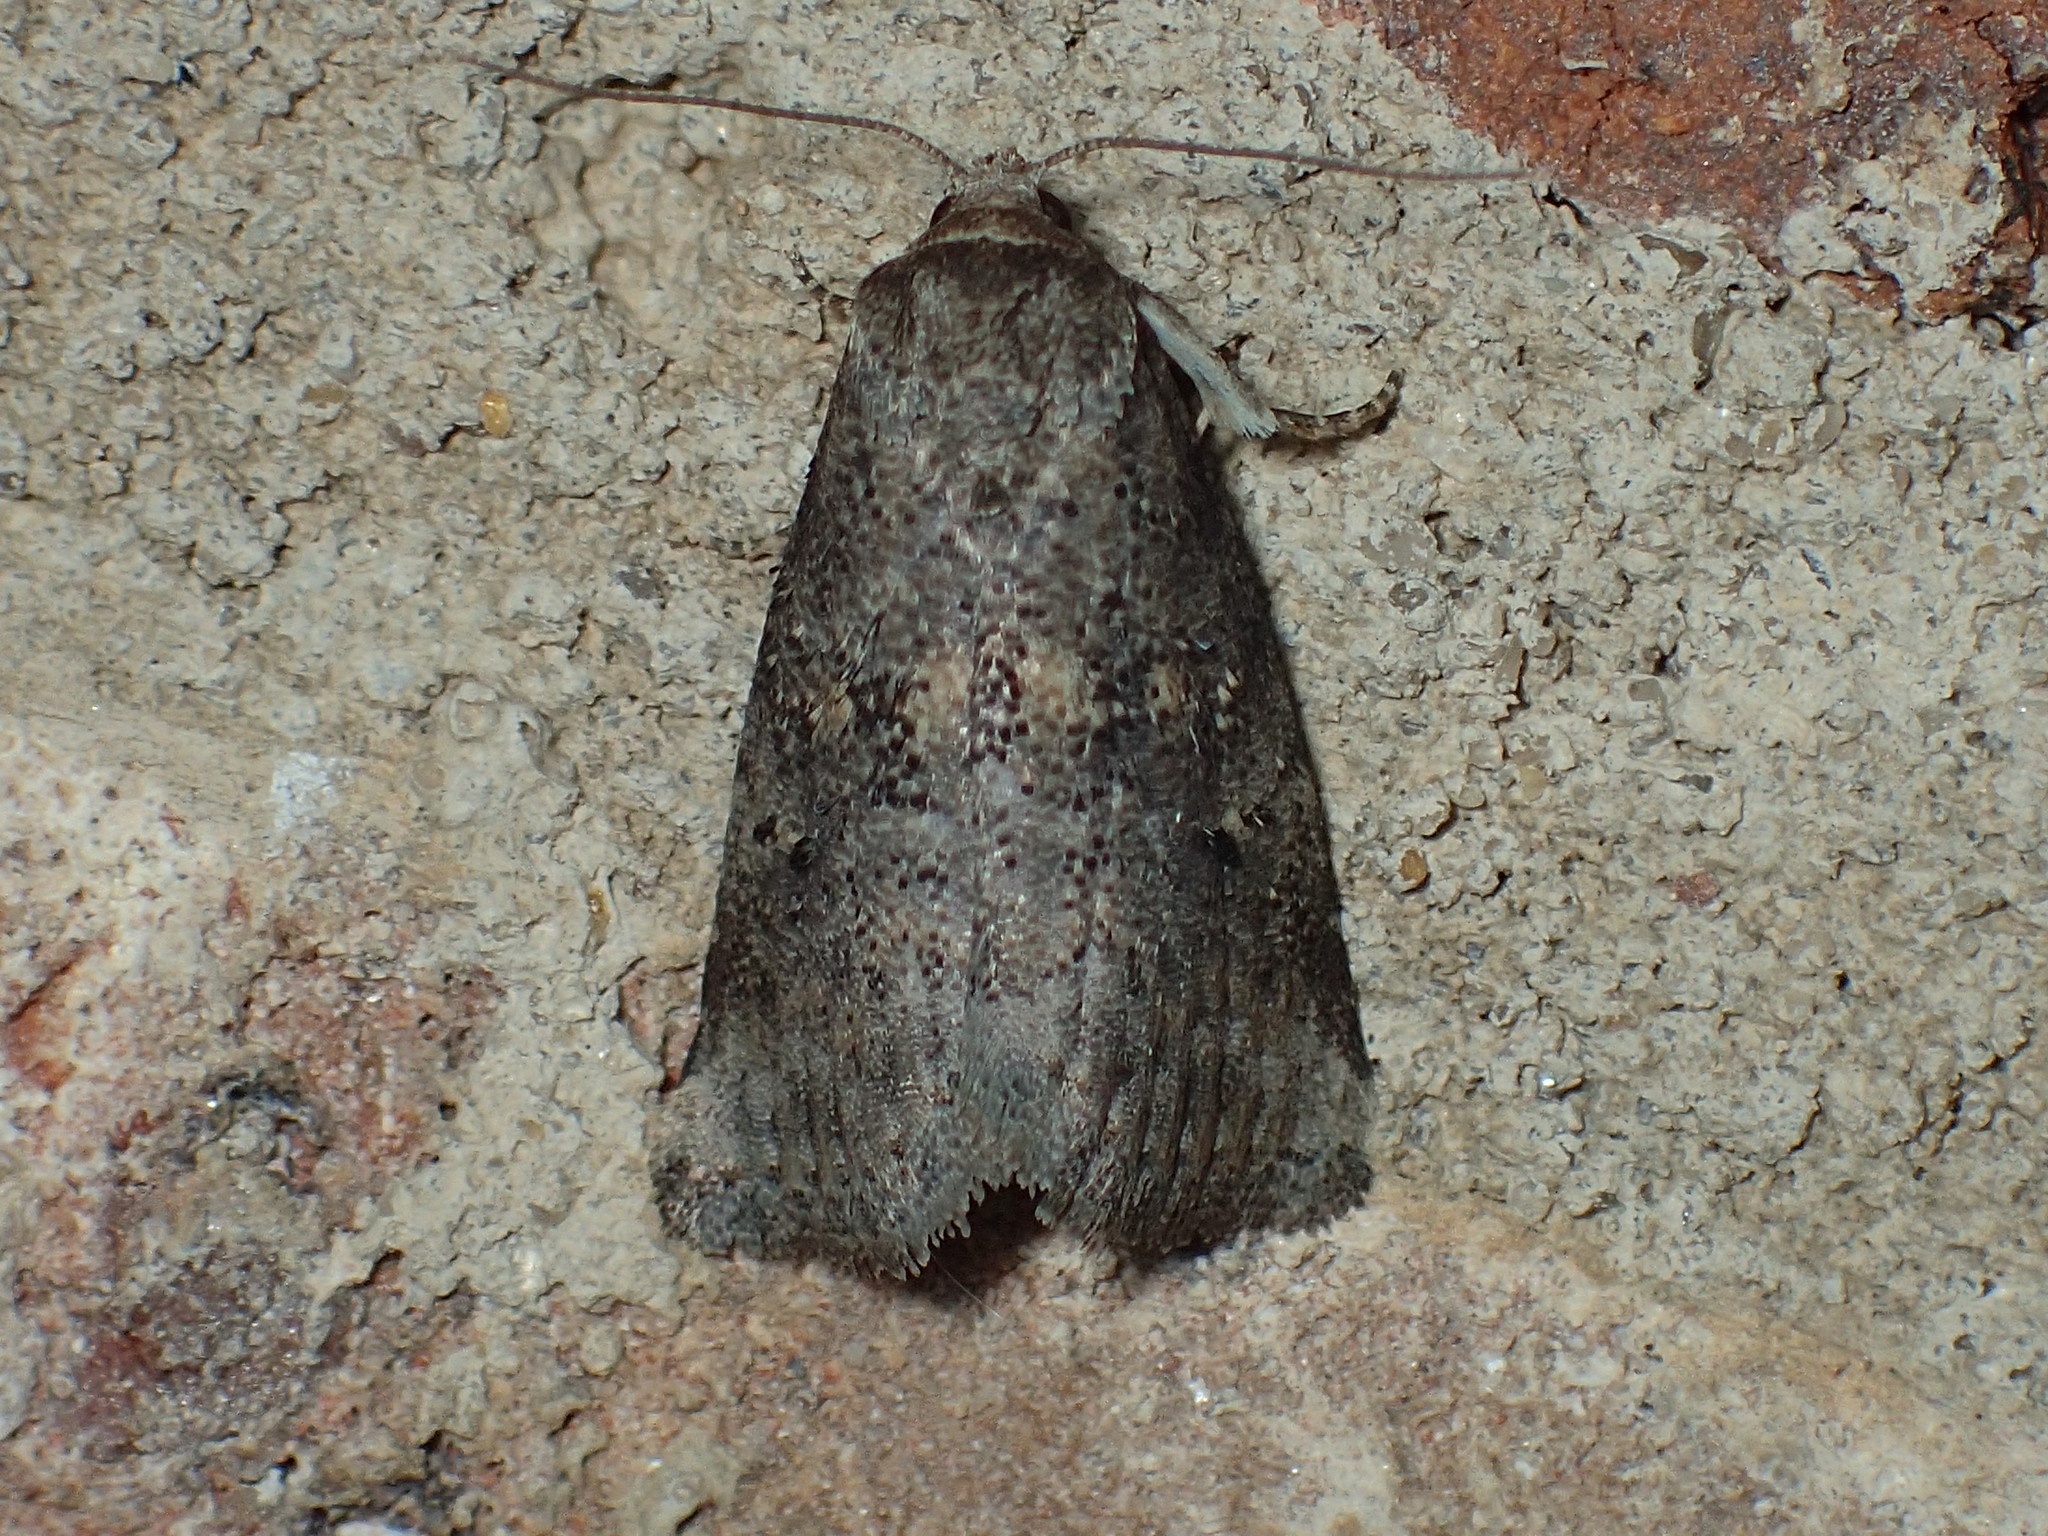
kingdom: Animalia
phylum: Arthropoda
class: Insecta
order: Lepidoptera
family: Erebidae
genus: Hyperstrotia
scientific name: Hyperstrotia nana
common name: White-lined graylet
